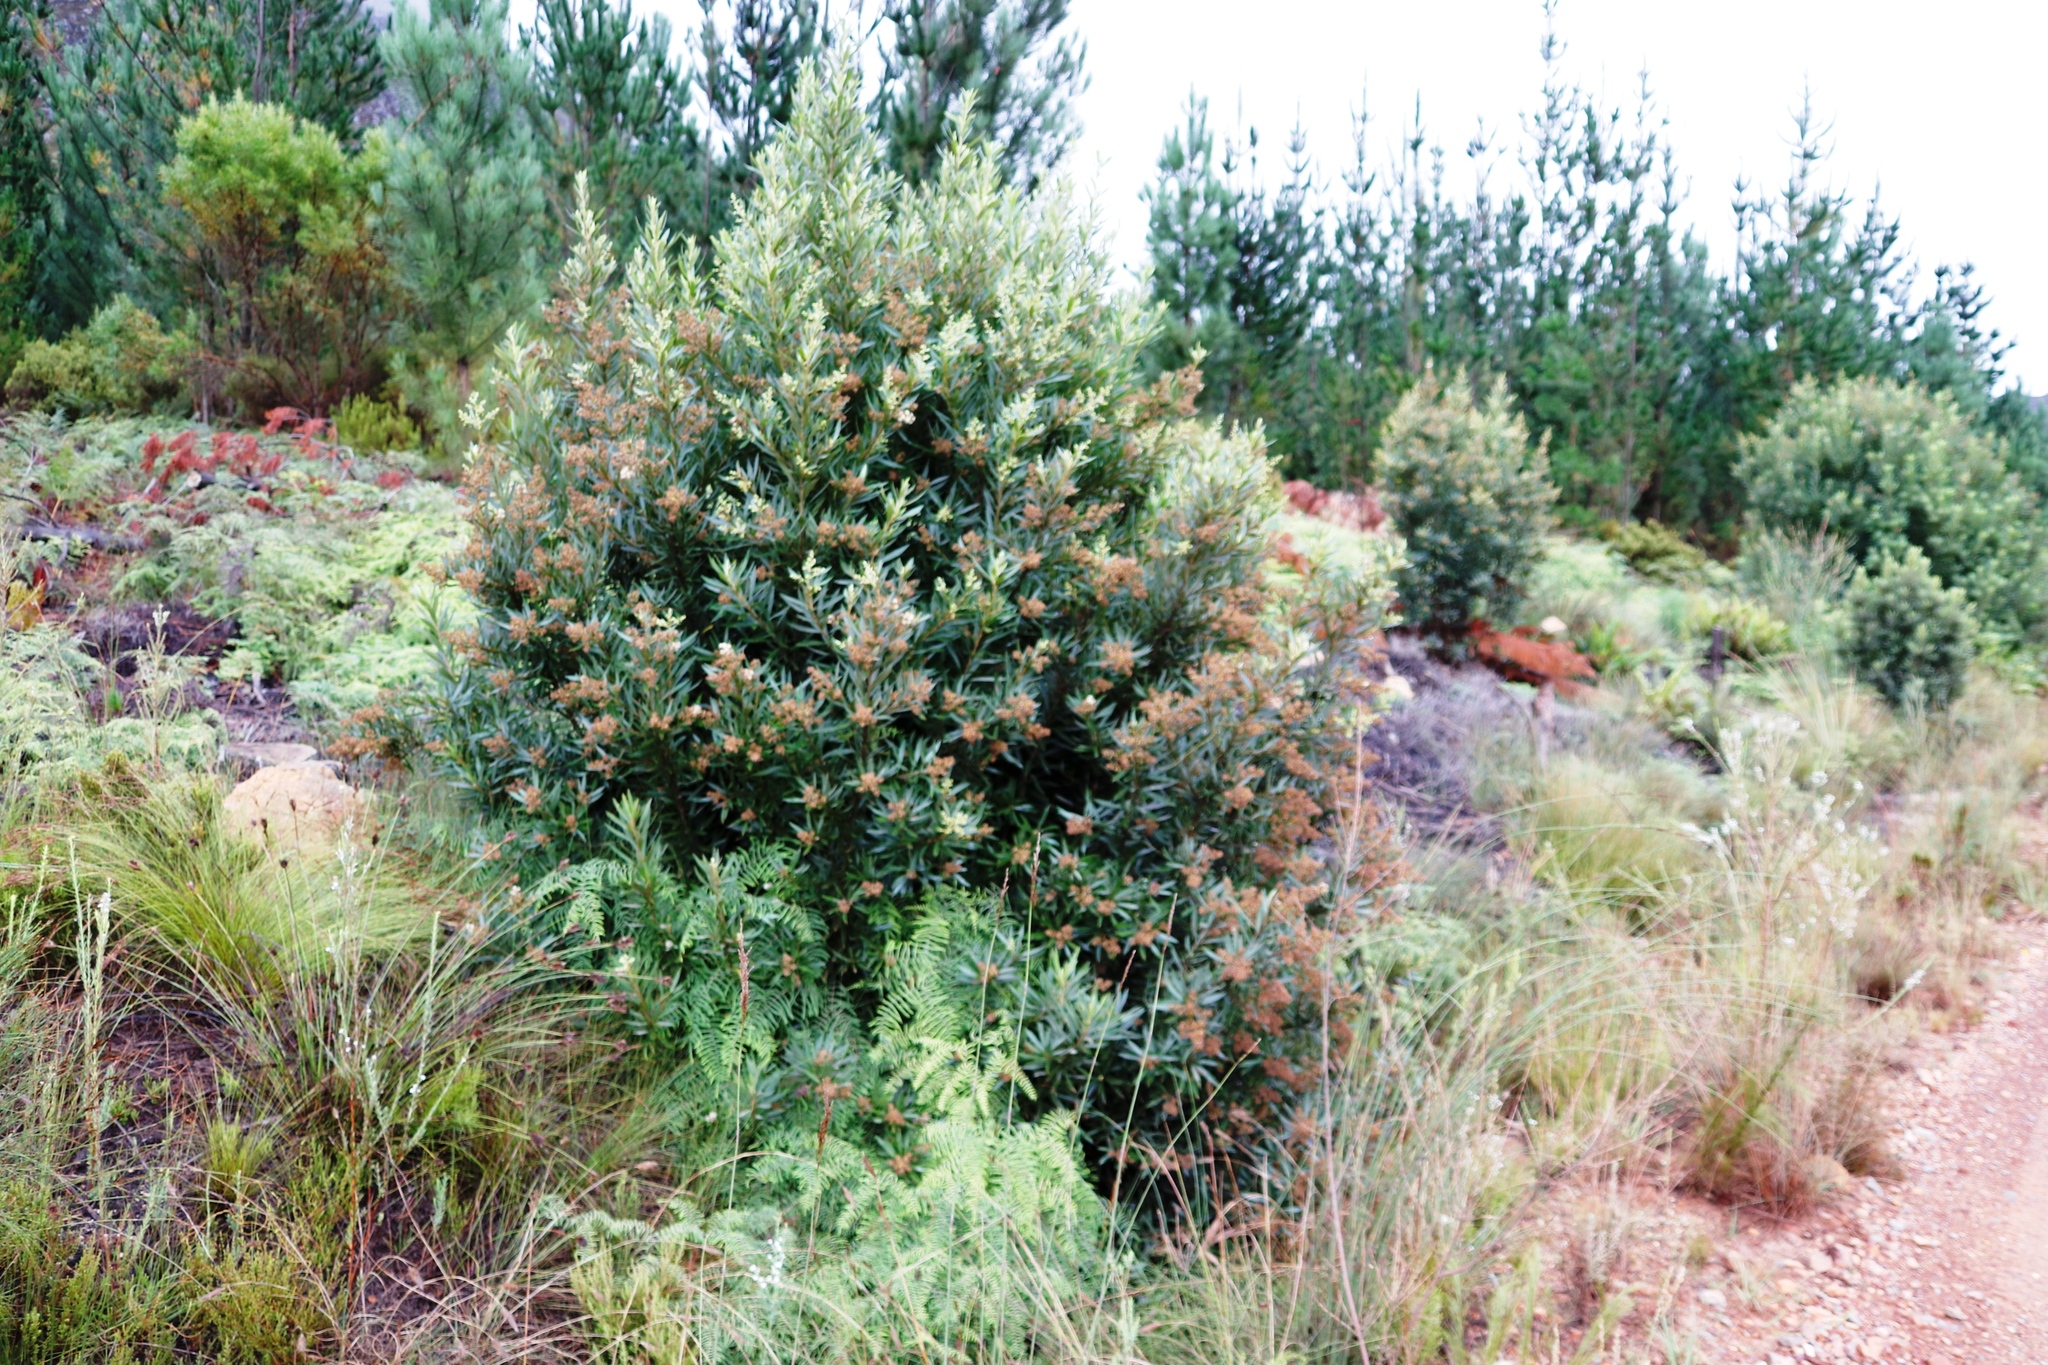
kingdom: Plantae
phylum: Tracheophyta
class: Magnoliopsida
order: Asterales
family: Asteraceae
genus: Brachylaena
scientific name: Brachylaena neriifolia
